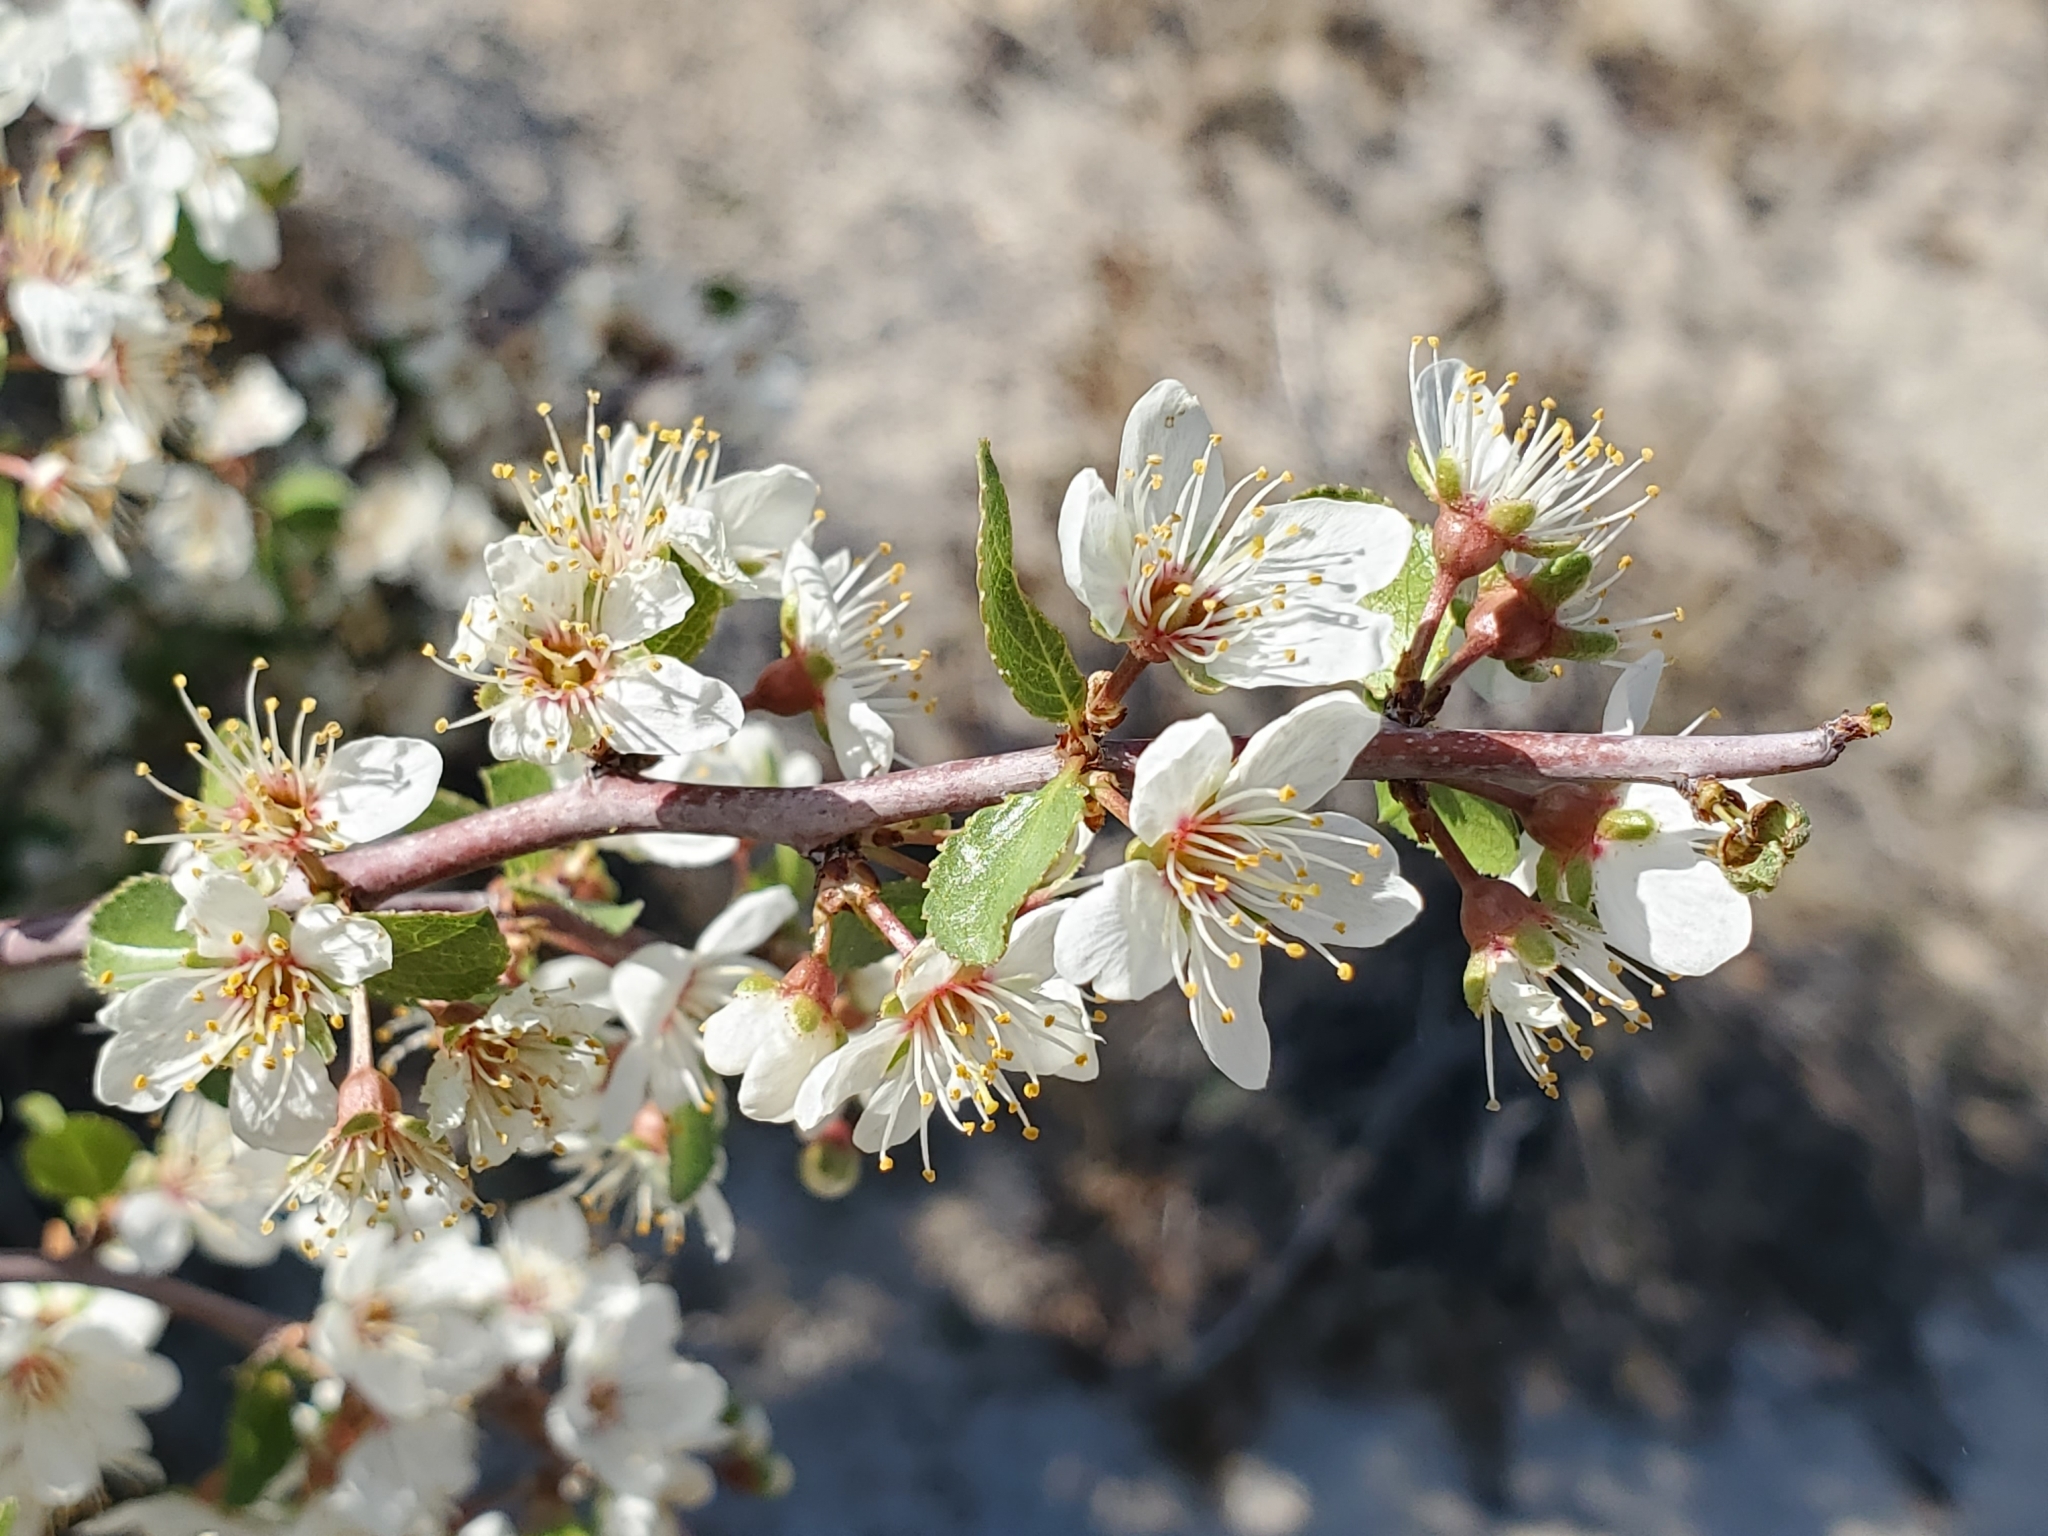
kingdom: Plantae
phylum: Tracheophyta
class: Magnoliopsida
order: Rosales
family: Rosaceae
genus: Prunus
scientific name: Prunus fremontii
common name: Desert apricot
